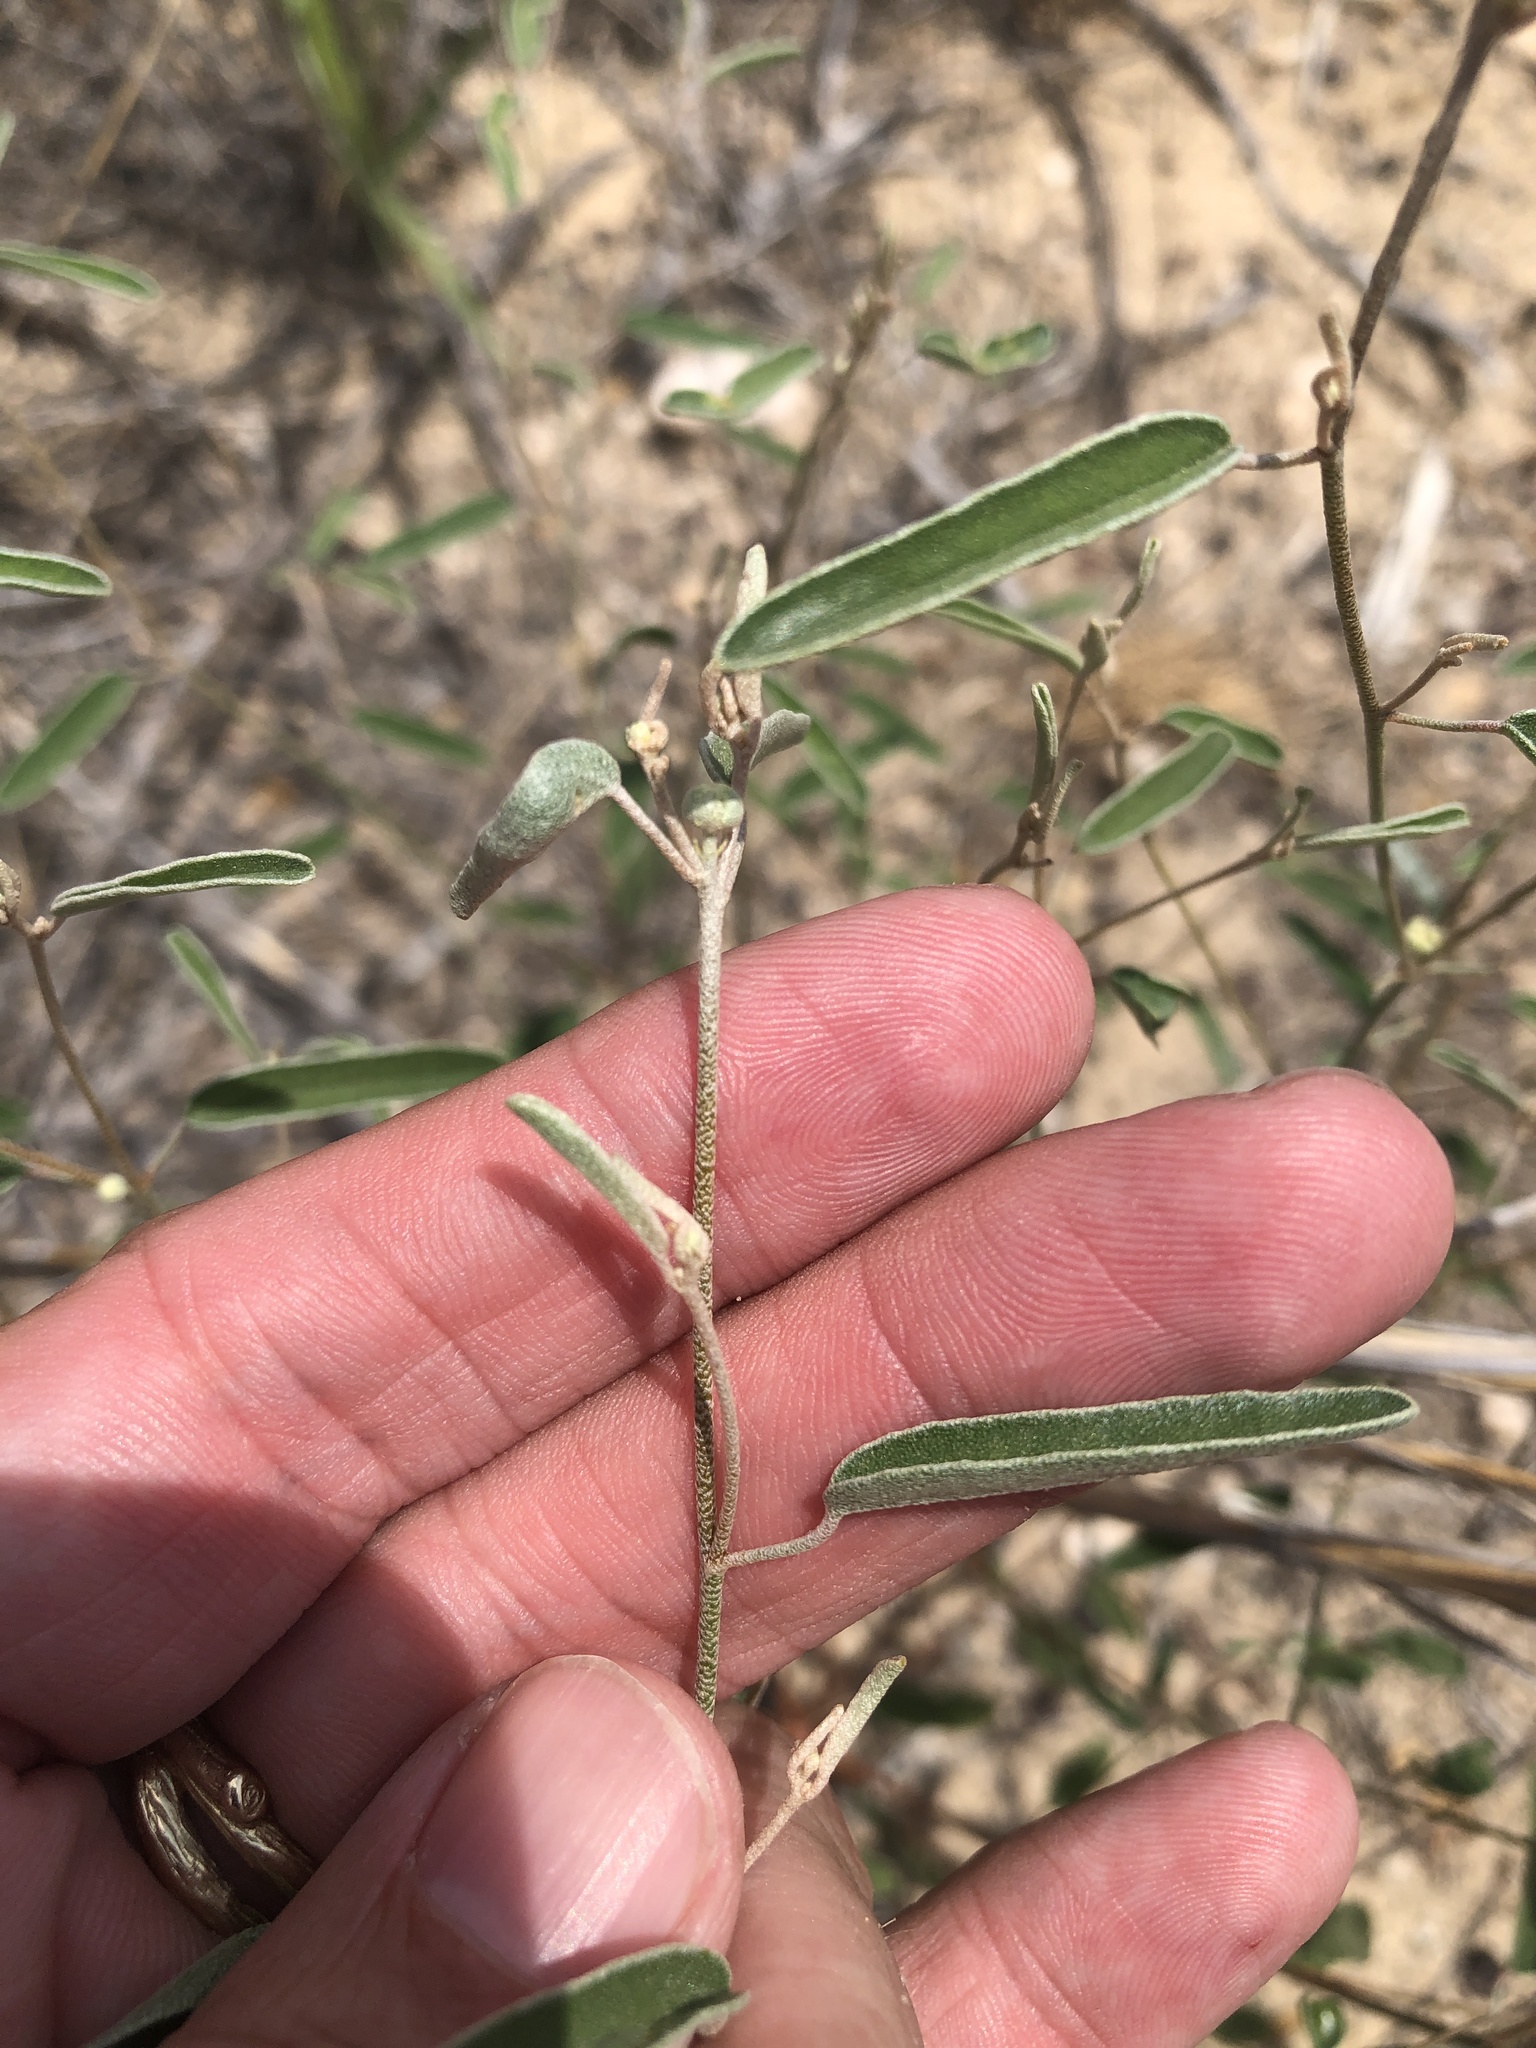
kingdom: Plantae
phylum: Tracheophyta
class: Magnoliopsida
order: Malpighiales
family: Euphorbiaceae
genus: Croton
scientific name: Croton texensis
